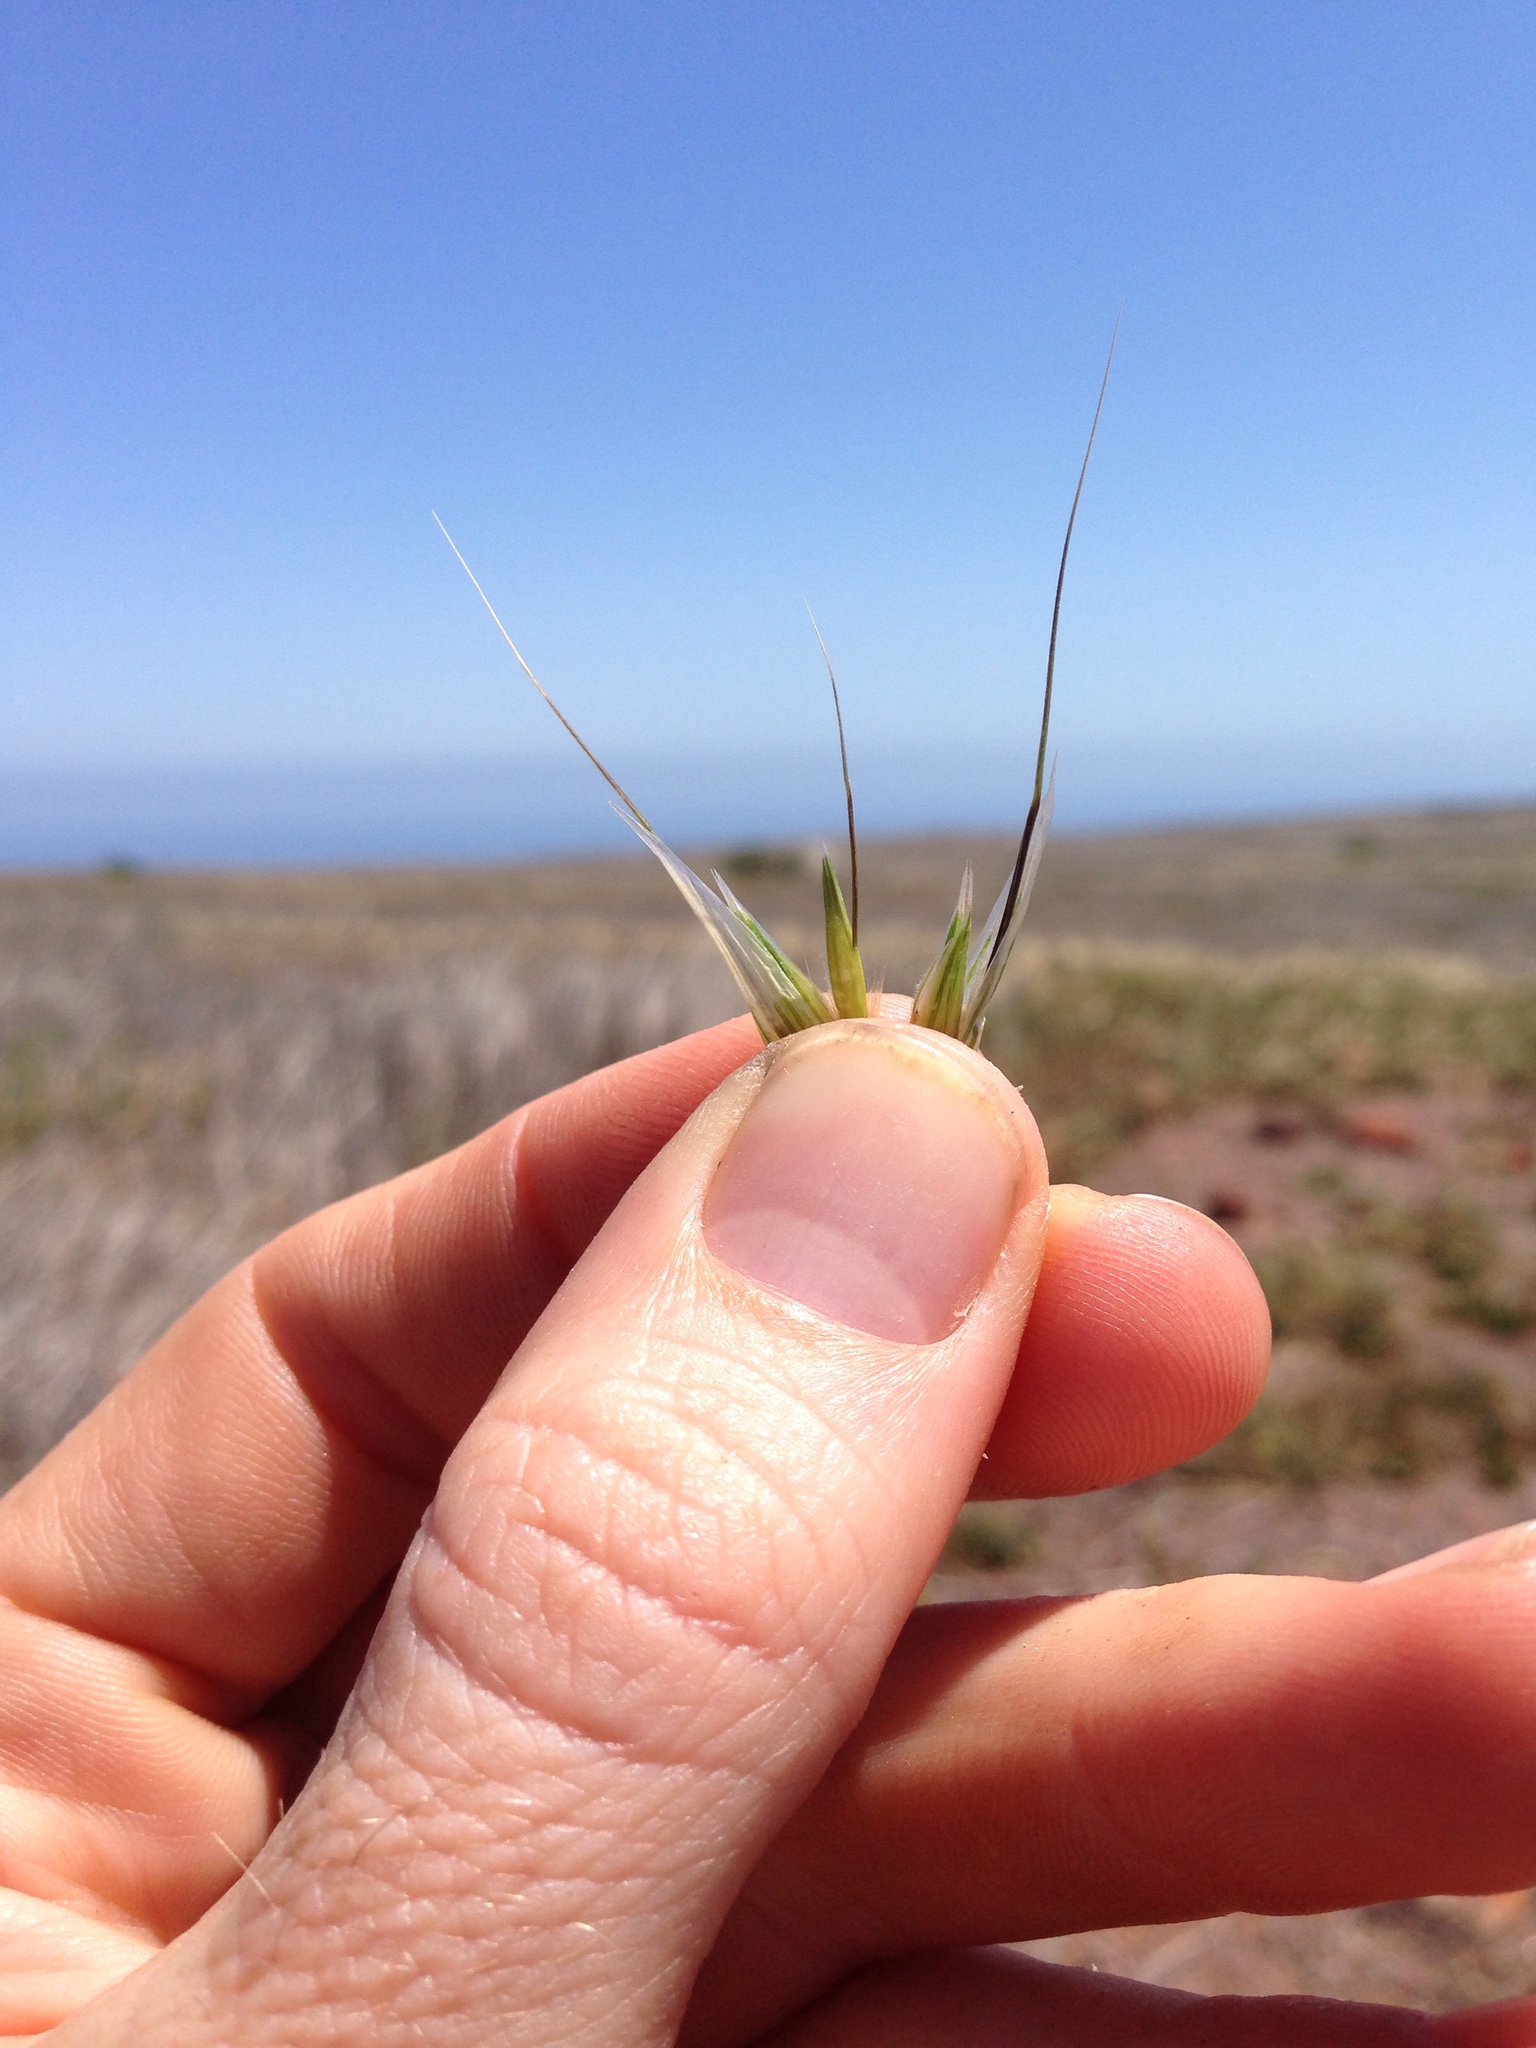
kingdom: Plantae
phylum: Tracheophyta
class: Liliopsida
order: Poales
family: Poaceae
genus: Avena
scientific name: Avena fatua
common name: Wild oat
